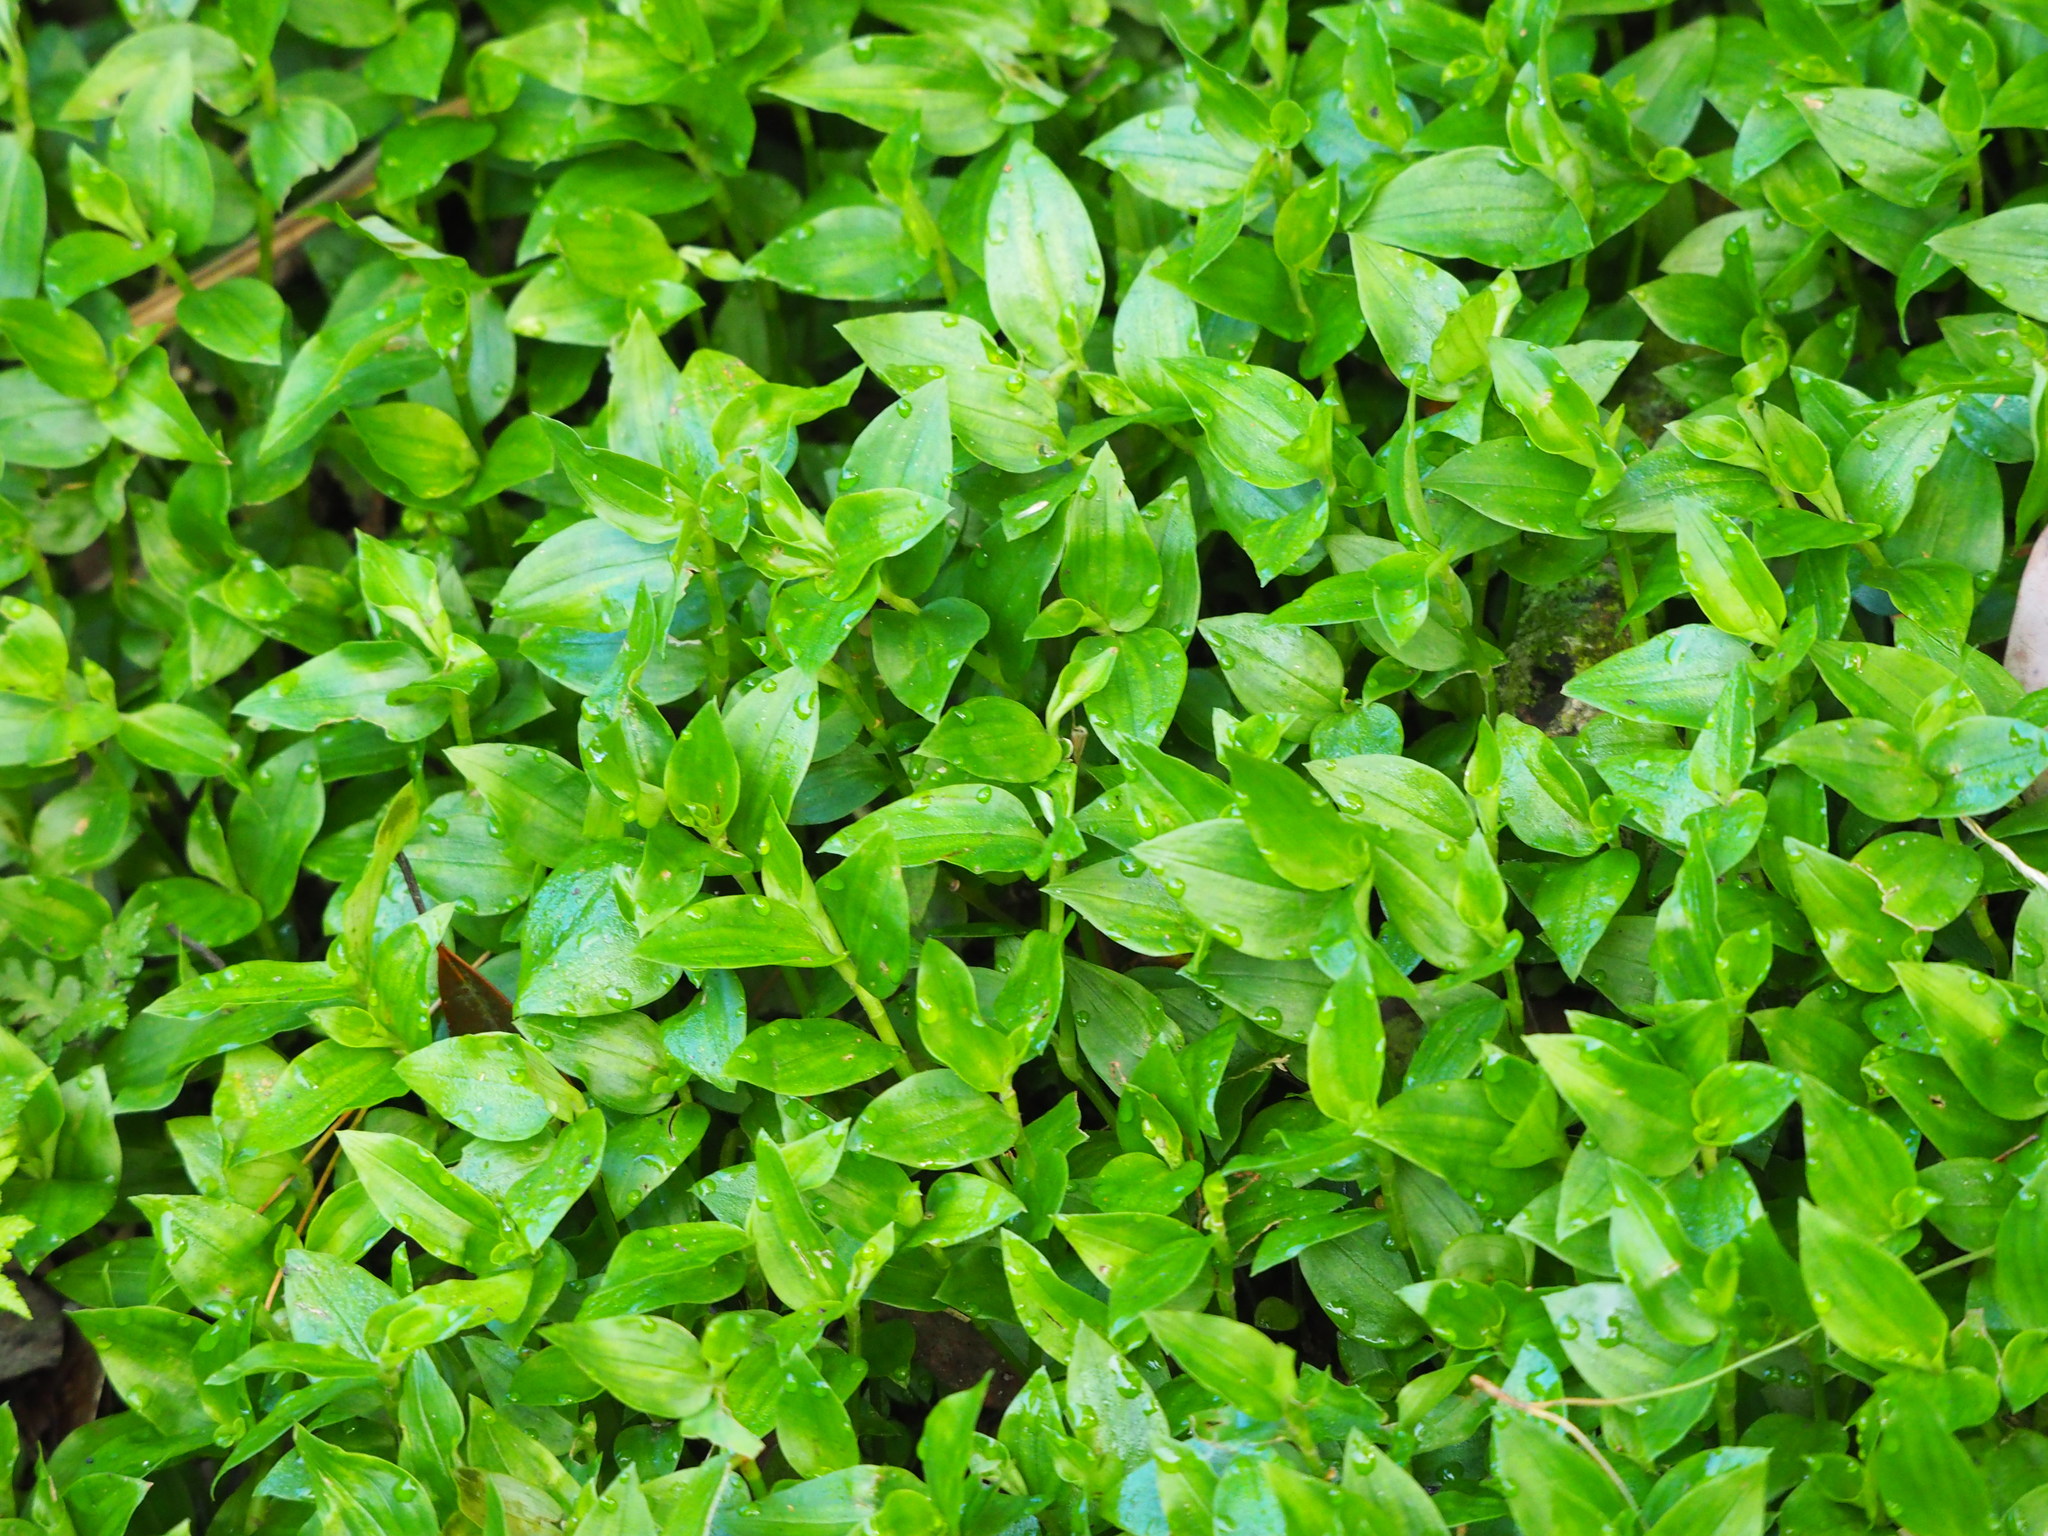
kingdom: Plantae
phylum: Tracheophyta
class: Liliopsida
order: Commelinales
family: Commelinaceae
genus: Tradescantia
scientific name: Tradescantia fluminensis
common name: Wandering-jew
